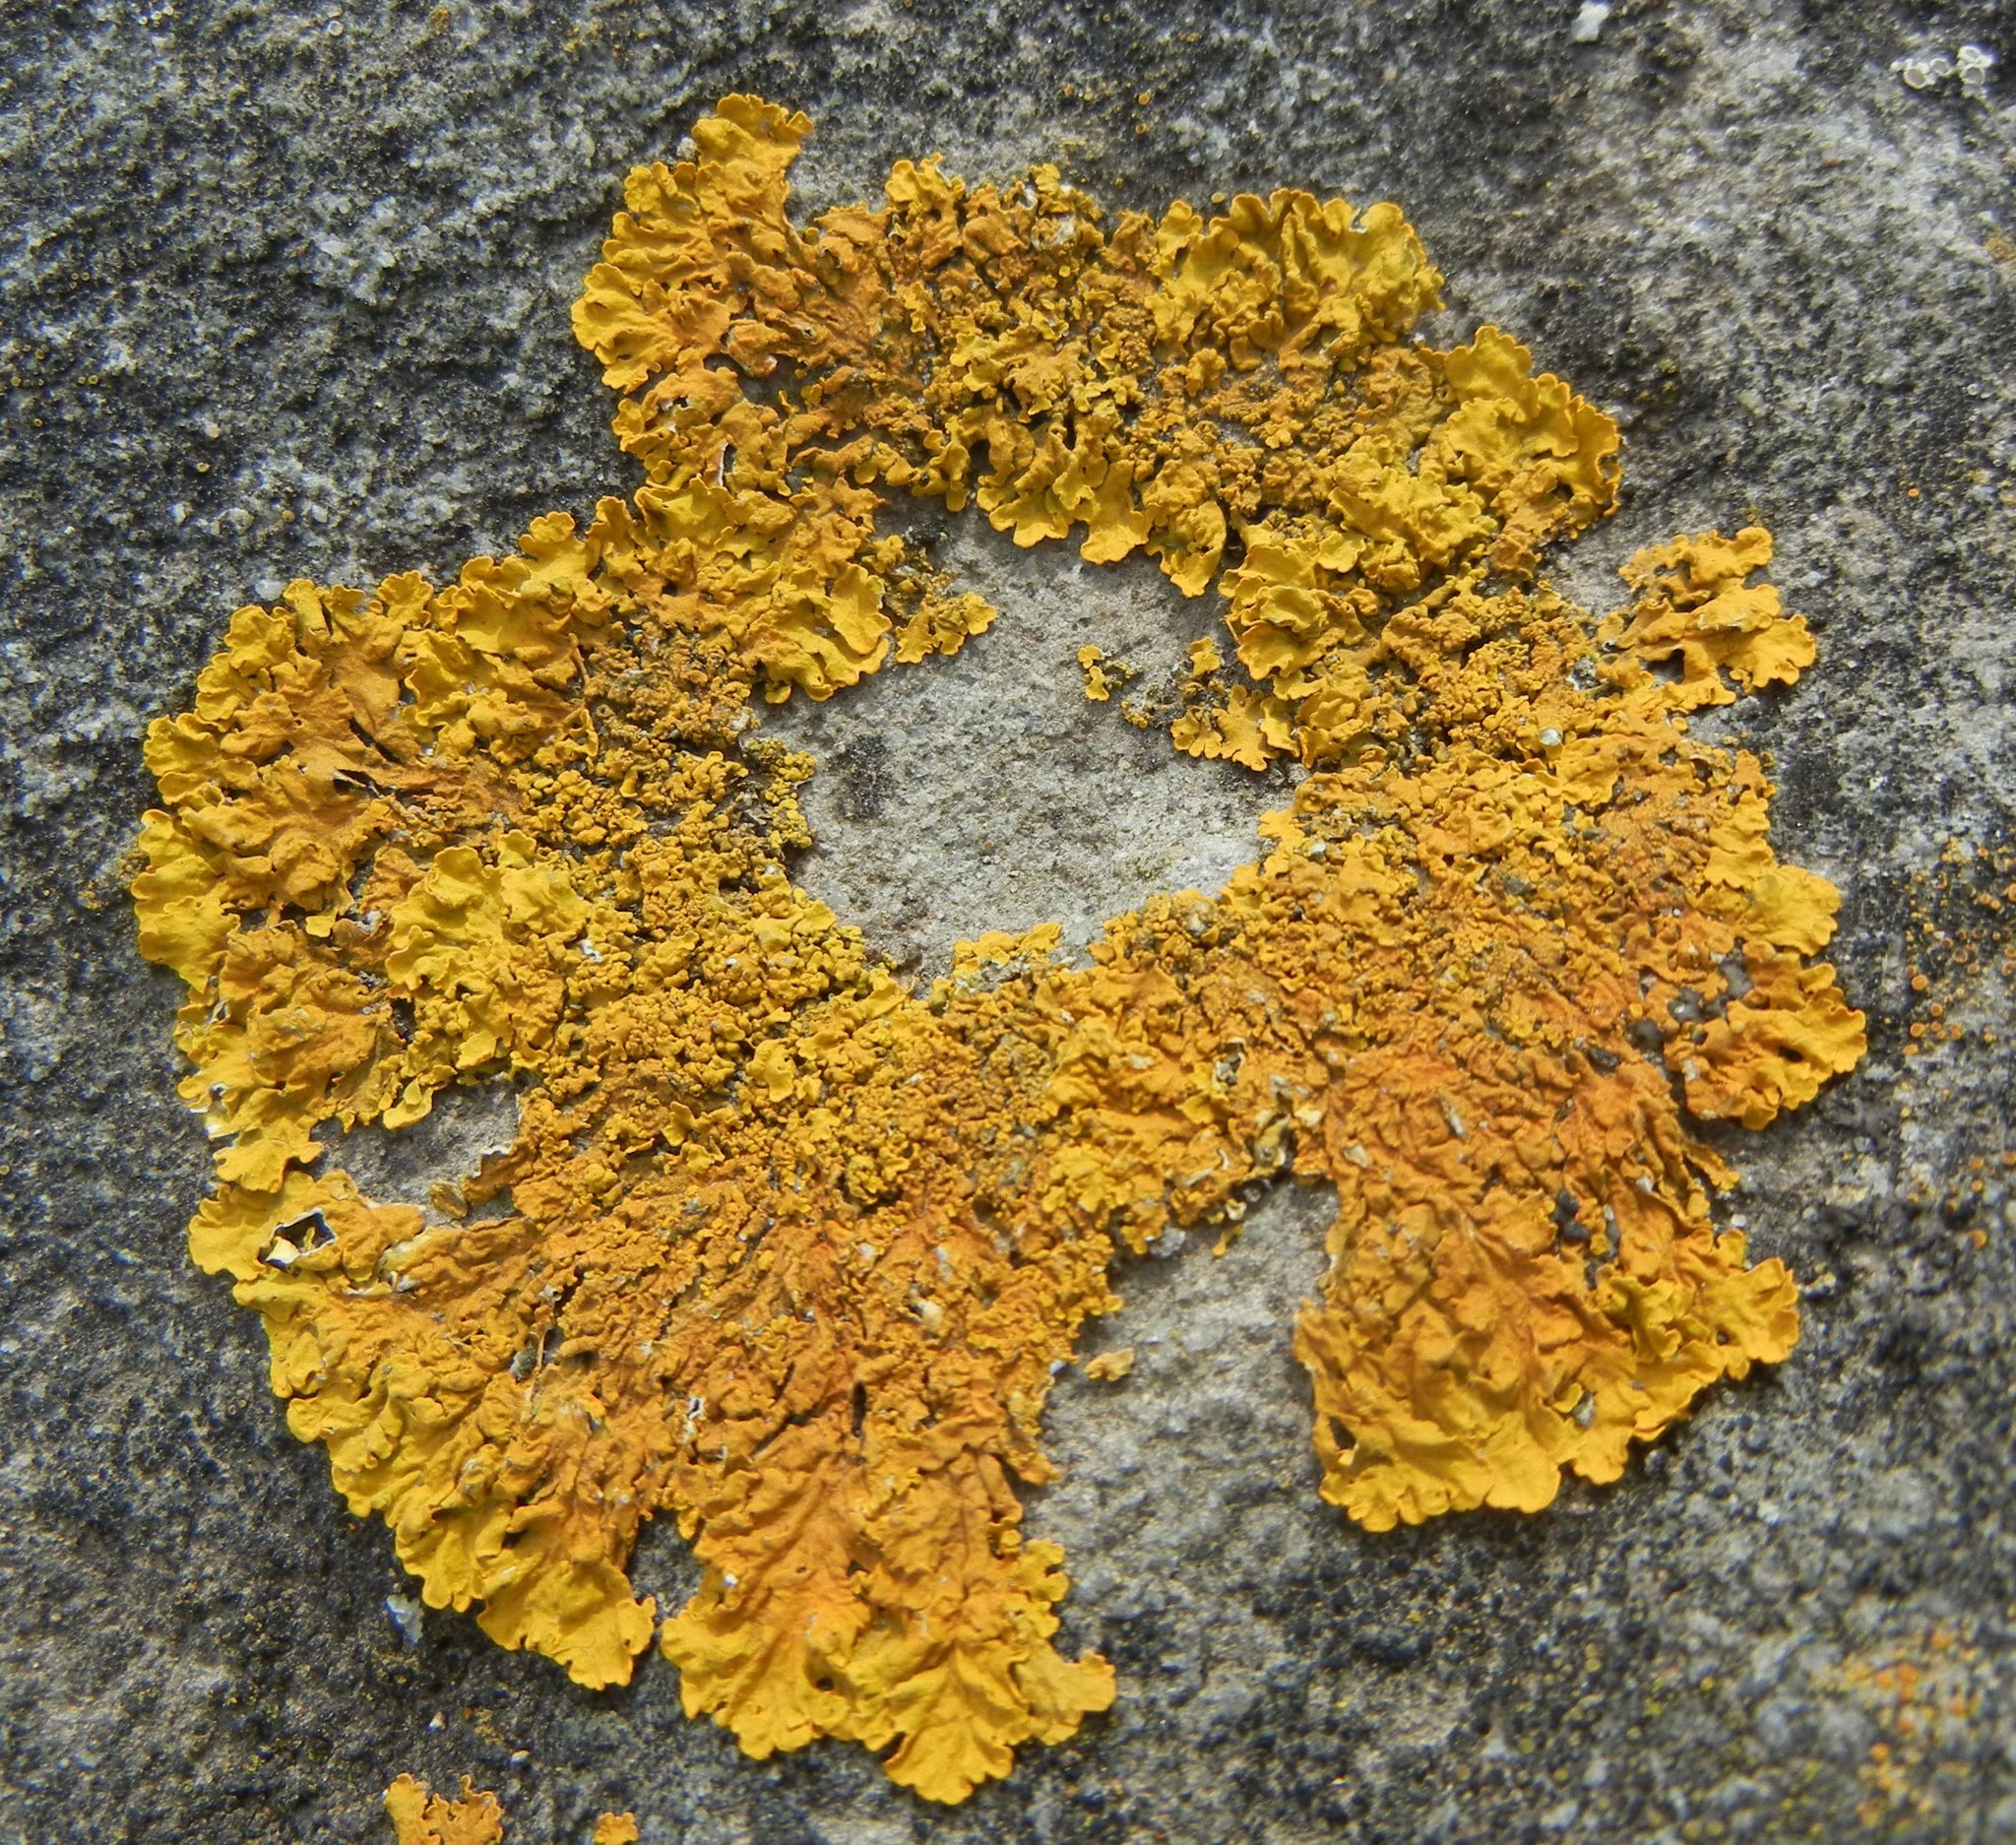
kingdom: Fungi
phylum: Ascomycota
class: Lecanoromycetes
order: Teloschistales
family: Teloschistaceae
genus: Xanthoria
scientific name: Xanthoria calcicola
